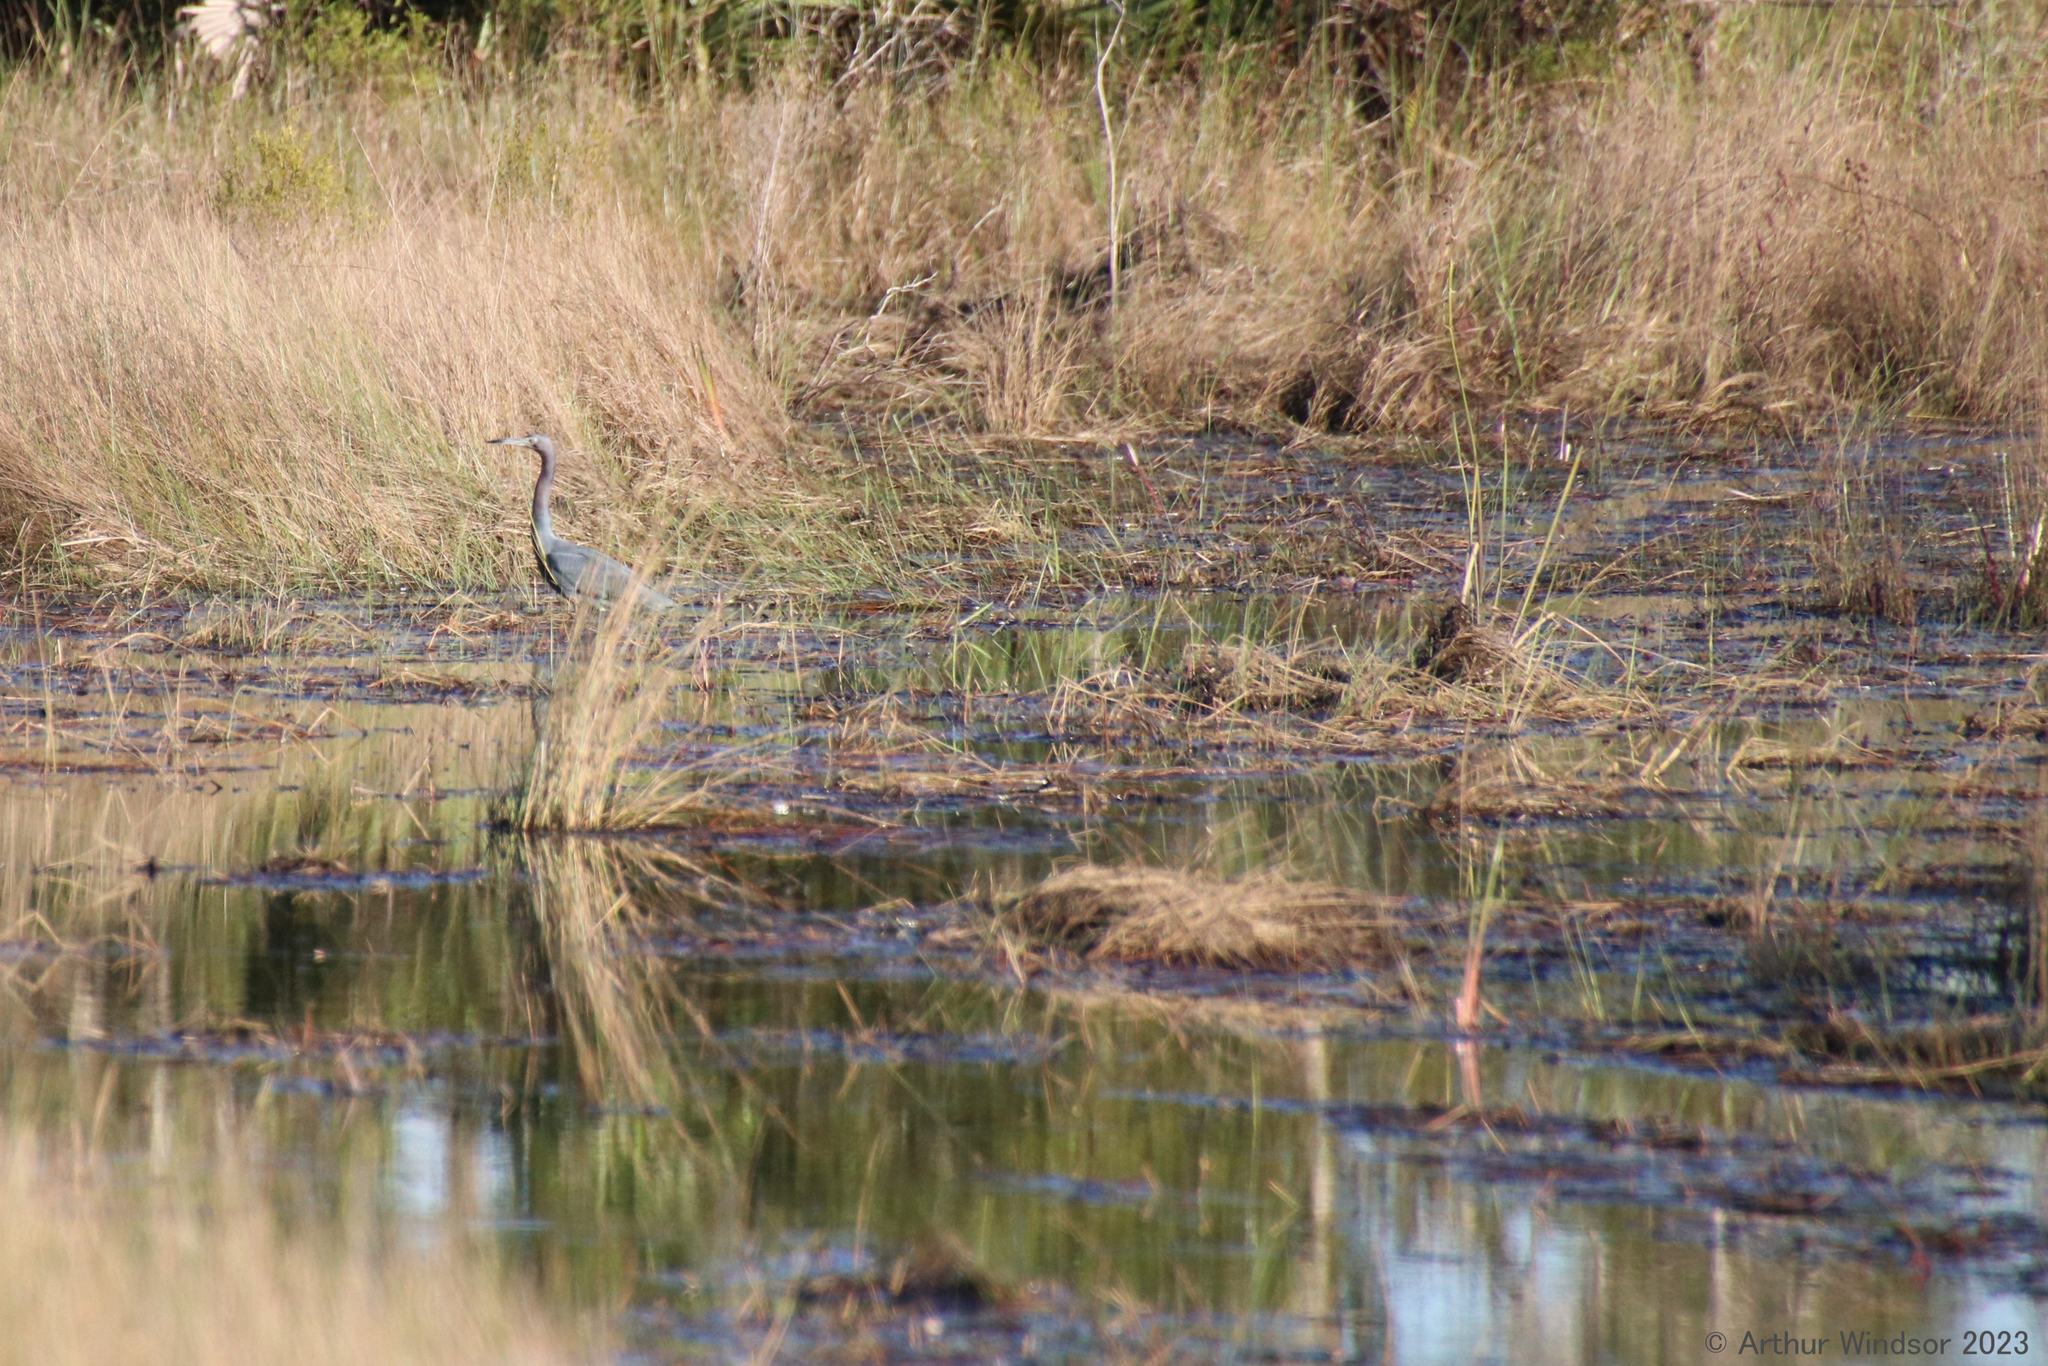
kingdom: Animalia
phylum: Chordata
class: Aves
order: Pelecaniformes
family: Ardeidae
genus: Egretta
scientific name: Egretta caerulea
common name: Little blue heron
